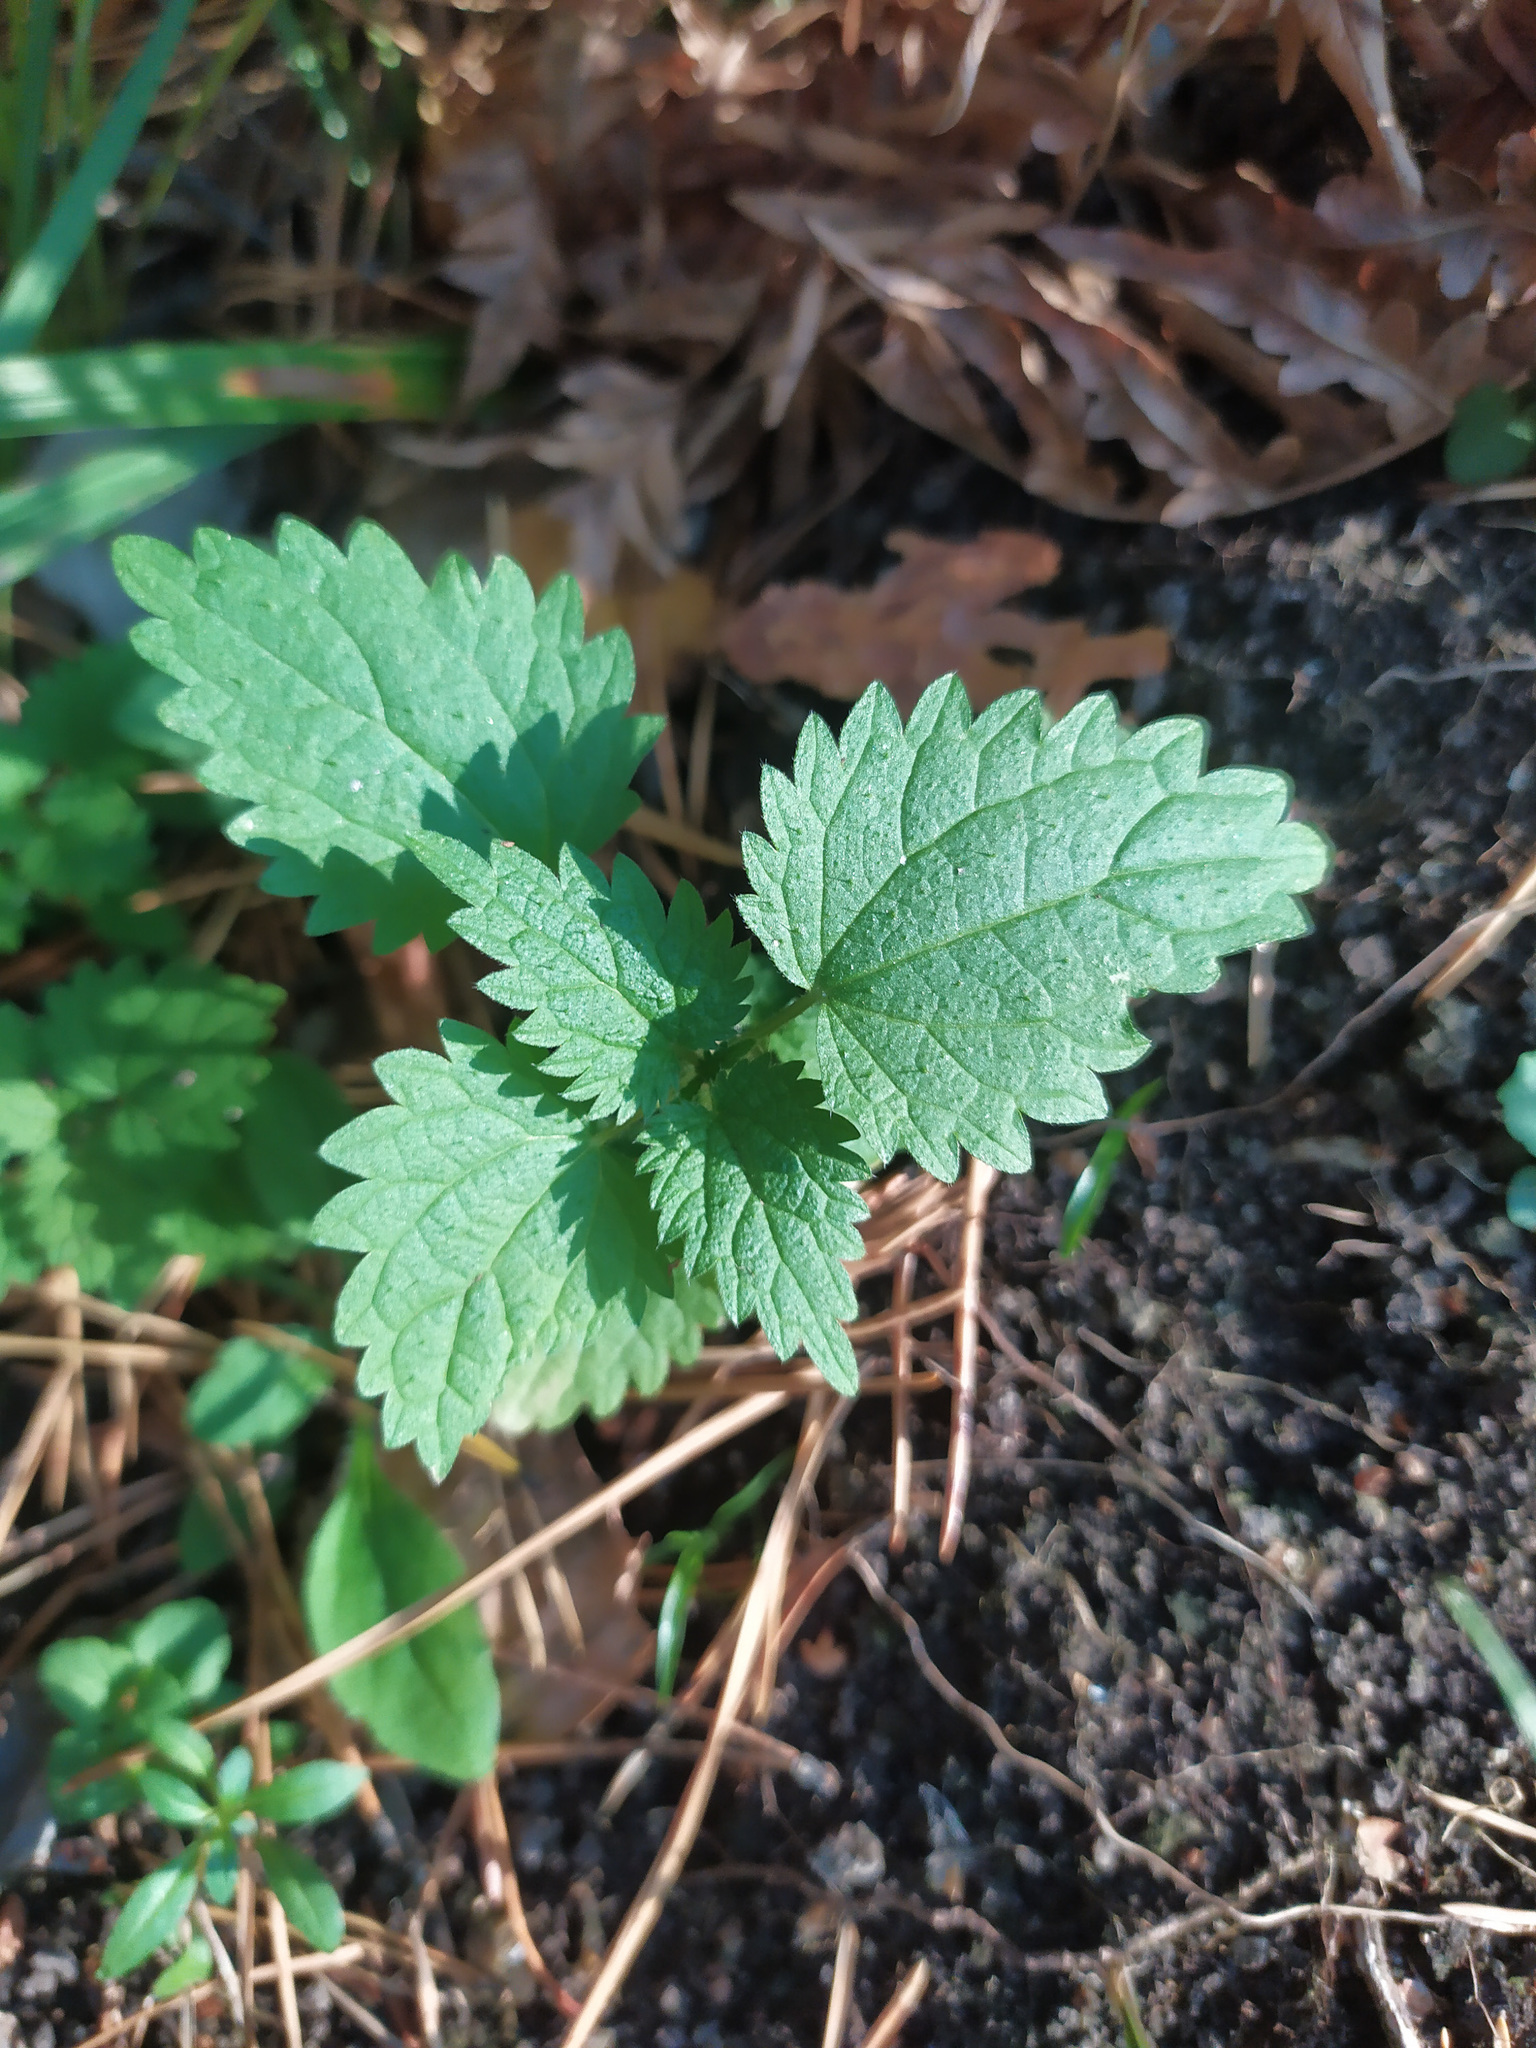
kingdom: Plantae
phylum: Tracheophyta
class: Magnoliopsida
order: Rosales
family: Urticaceae
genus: Urtica
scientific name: Urtica dioica
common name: Common nettle
